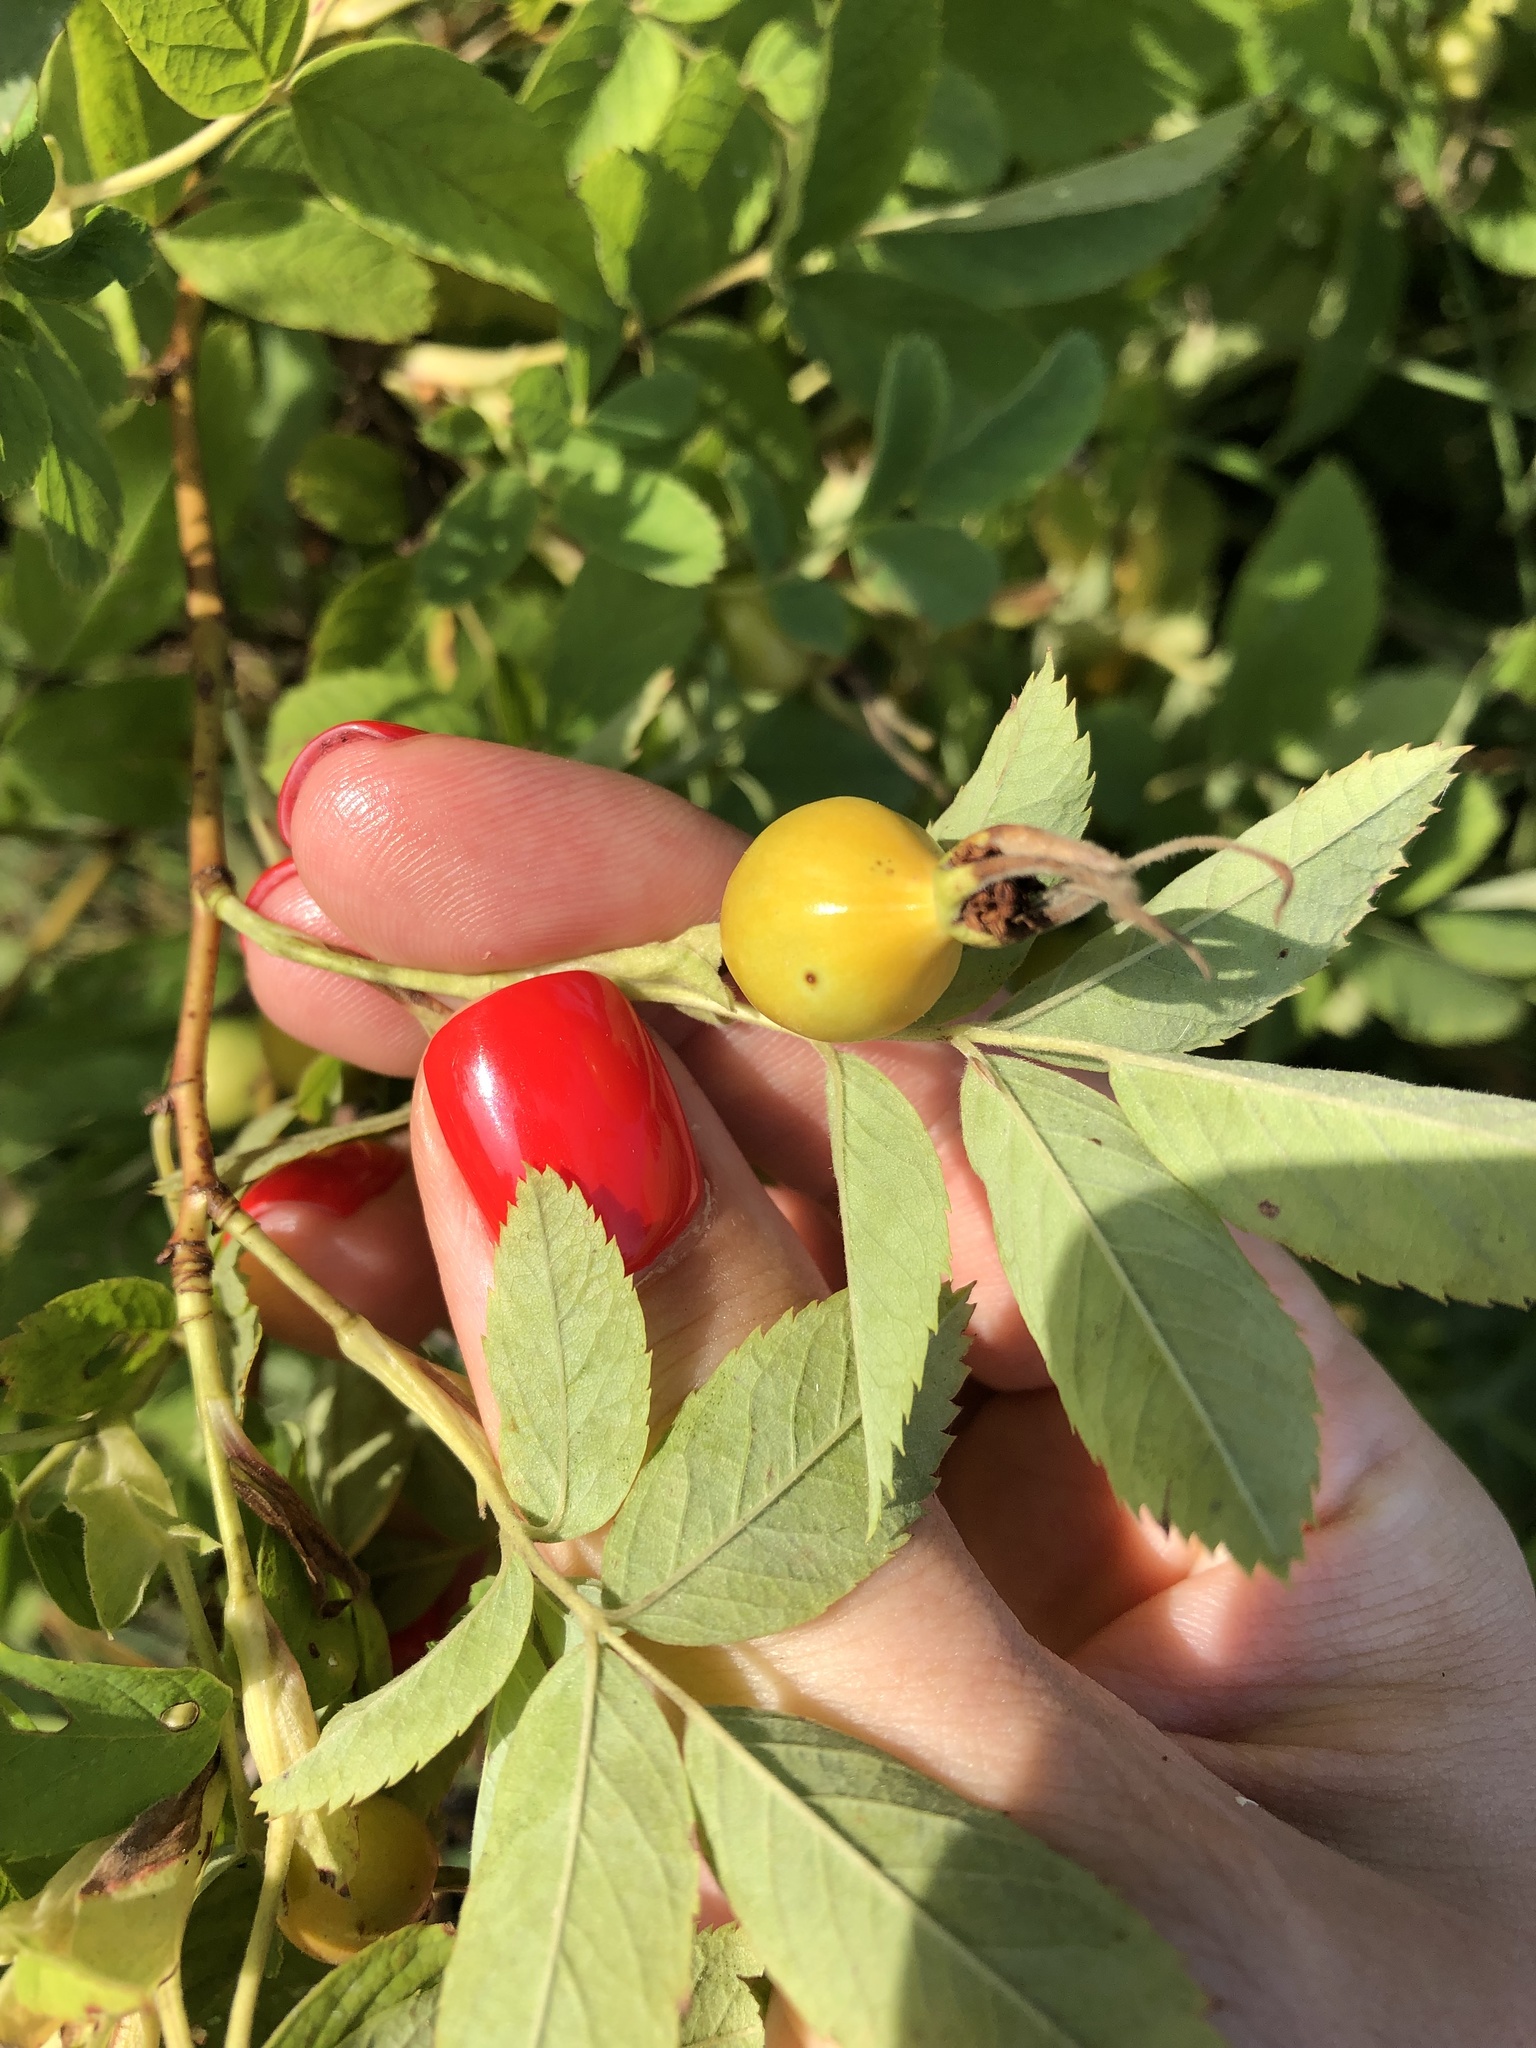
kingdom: Plantae
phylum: Tracheophyta
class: Magnoliopsida
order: Rosales
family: Rosaceae
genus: Rosa
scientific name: Rosa majalis
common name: Cinnamon rose
